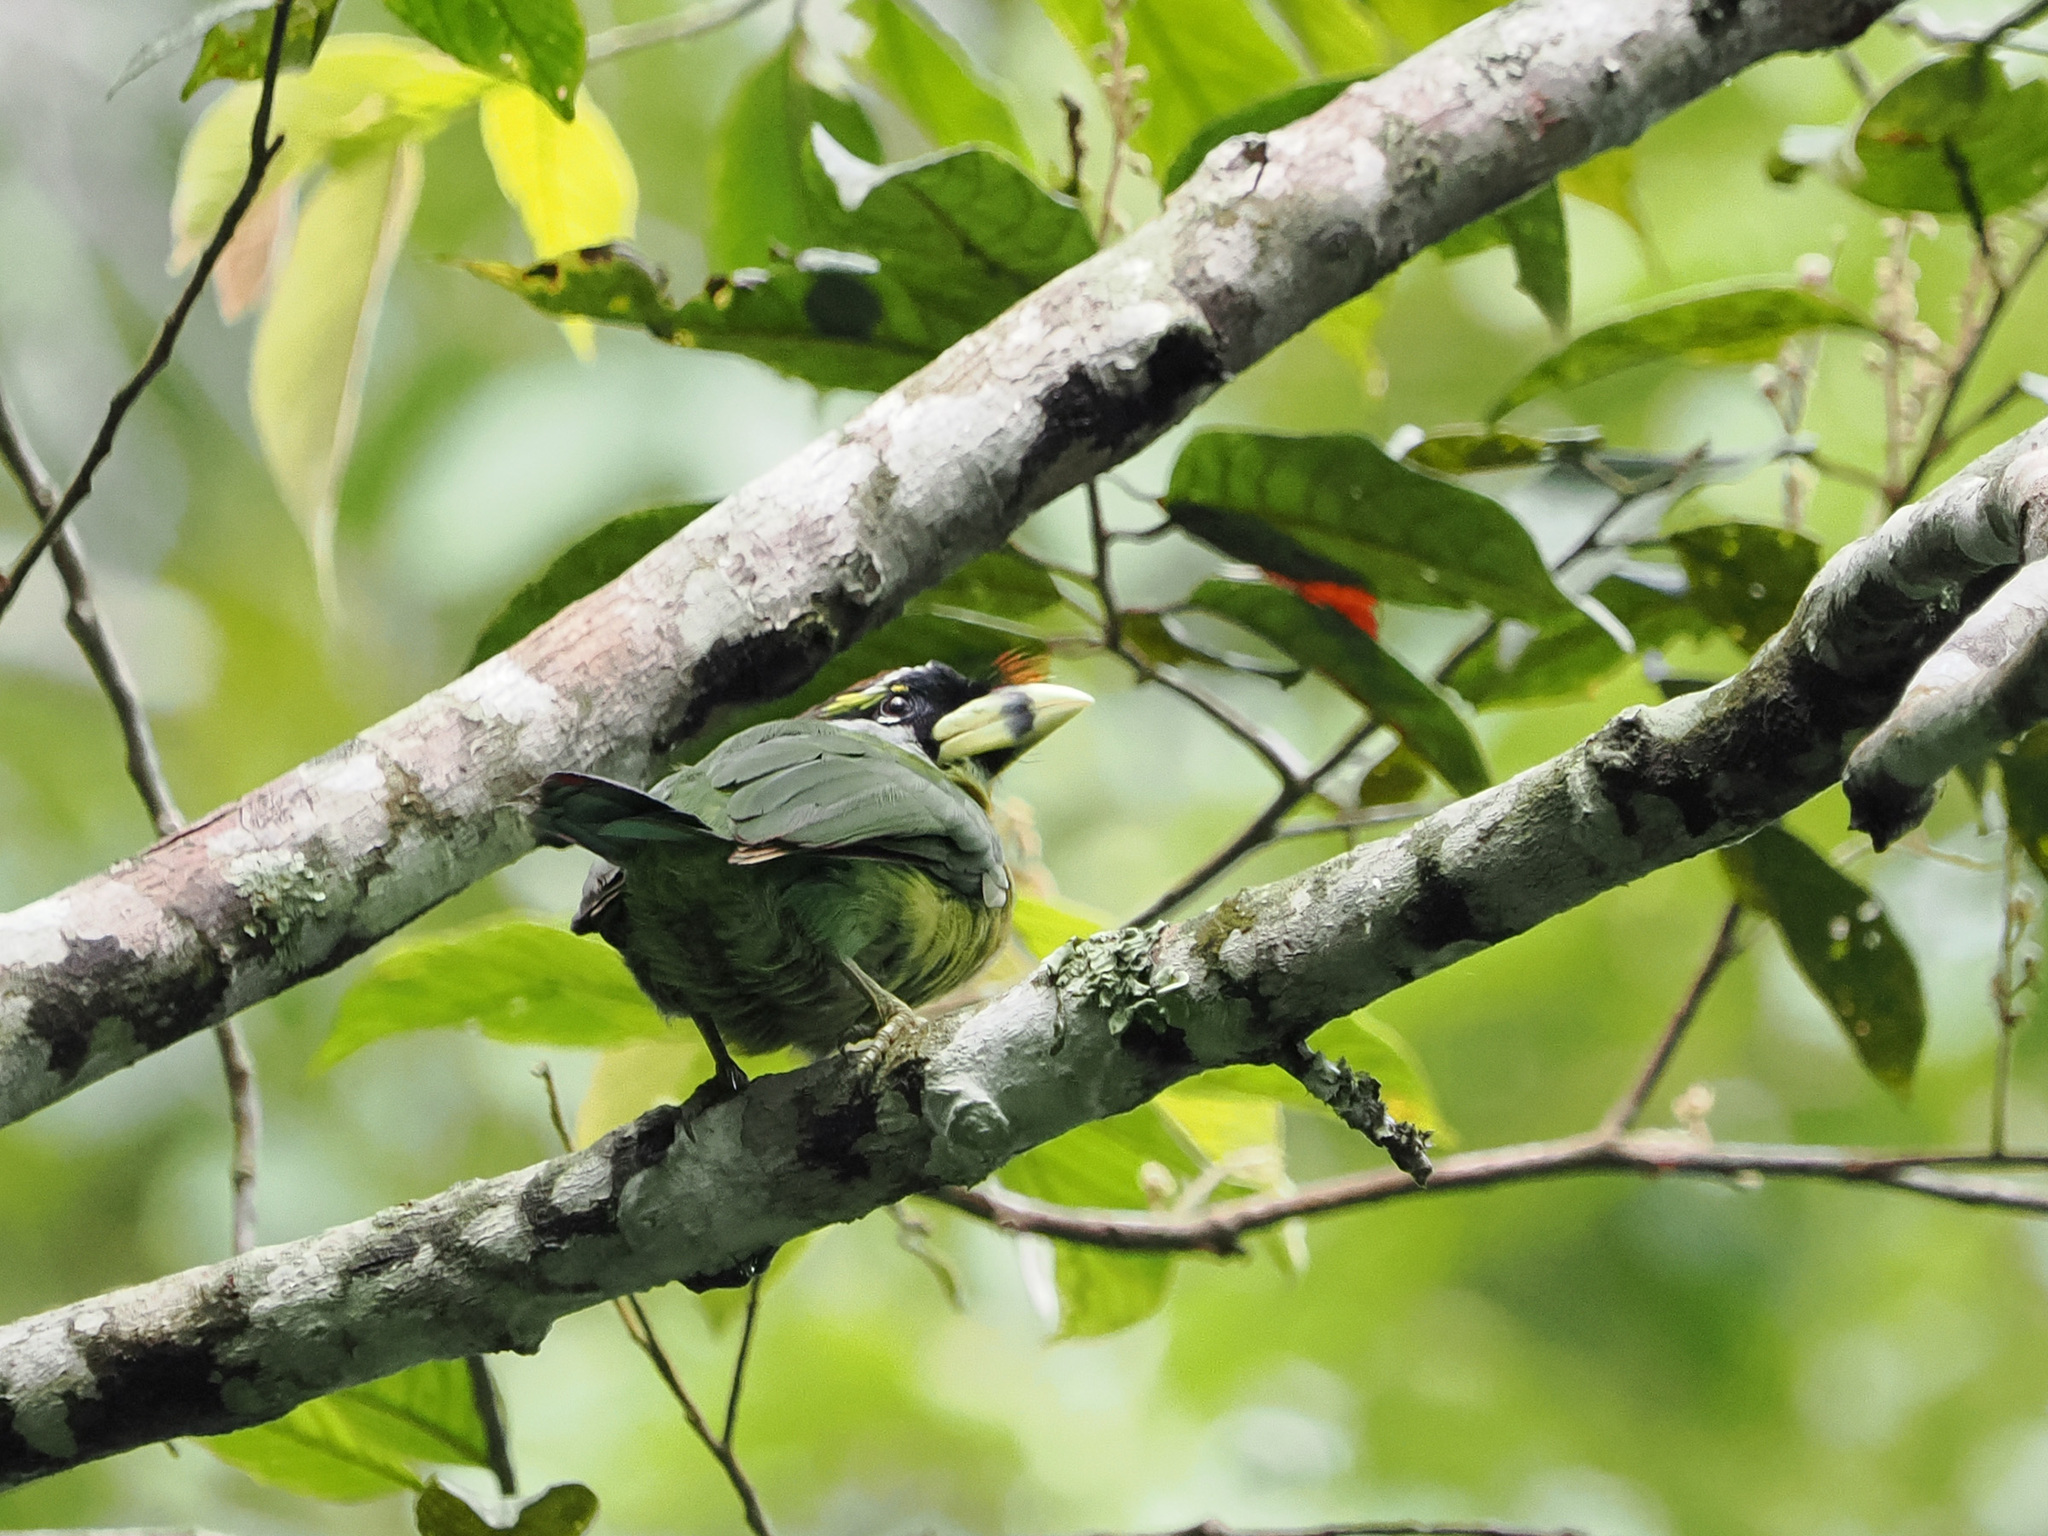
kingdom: Animalia
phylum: Chordata
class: Aves
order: Piciformes
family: Megalaimidae
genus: Psilopogon
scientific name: Psilopogon pyrolophus
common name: Fire-tufted barbet
